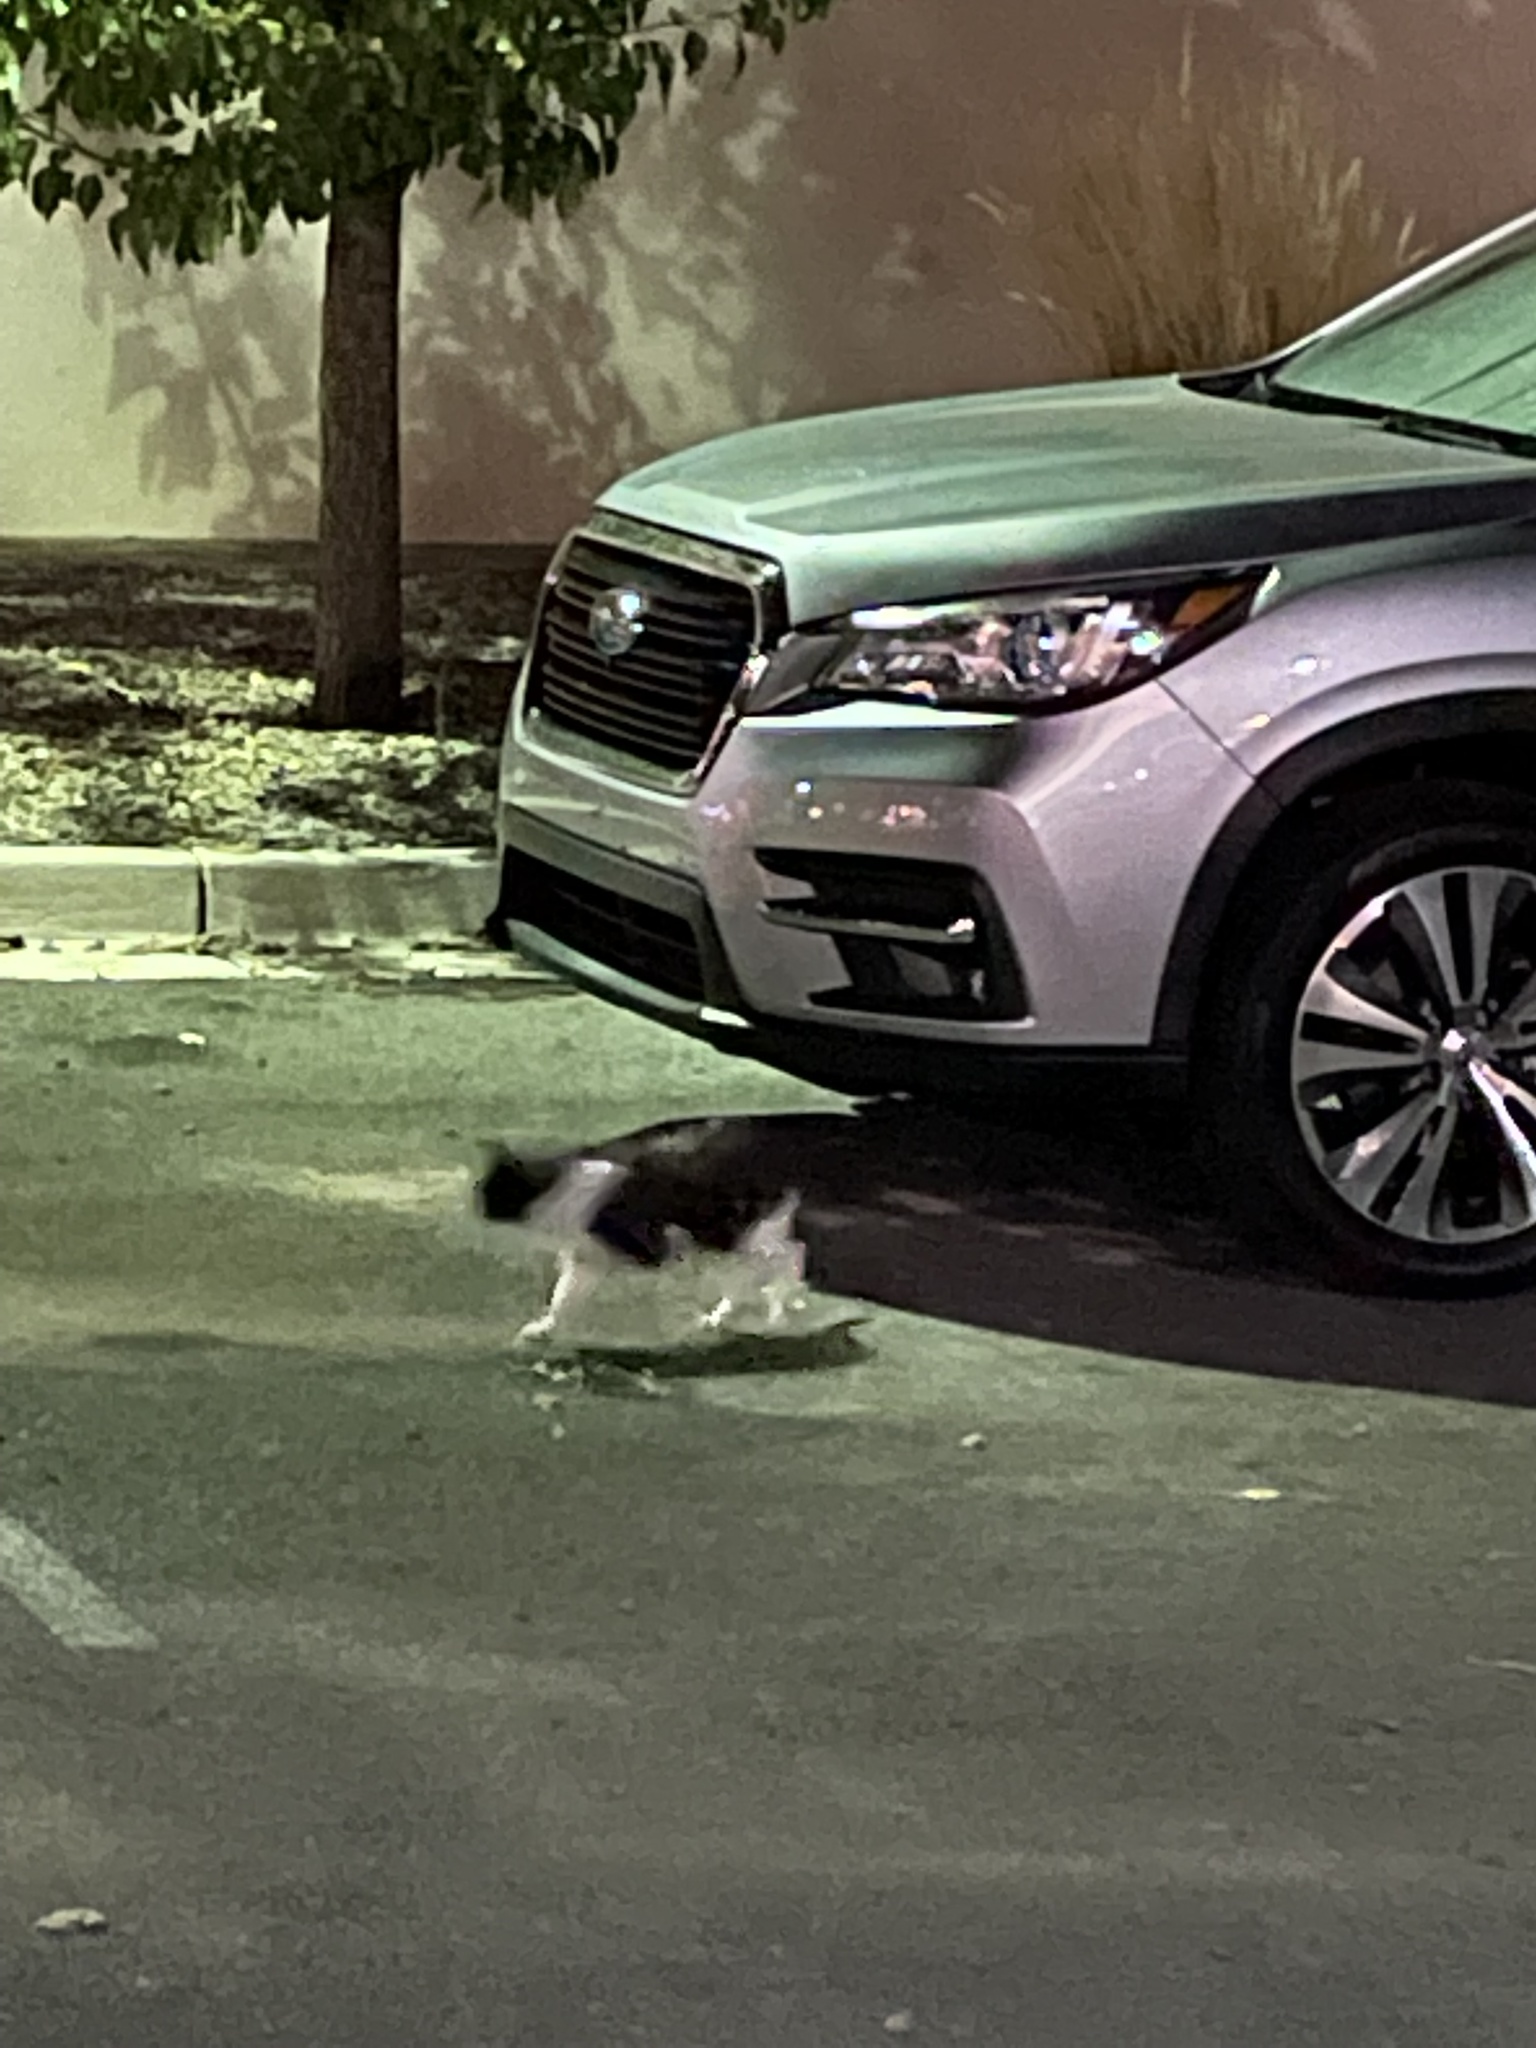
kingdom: Animalia
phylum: Chordata
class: Mammalia
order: Carnivora
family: Felidae
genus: Felis
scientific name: Felis catus
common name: Domestic cat
